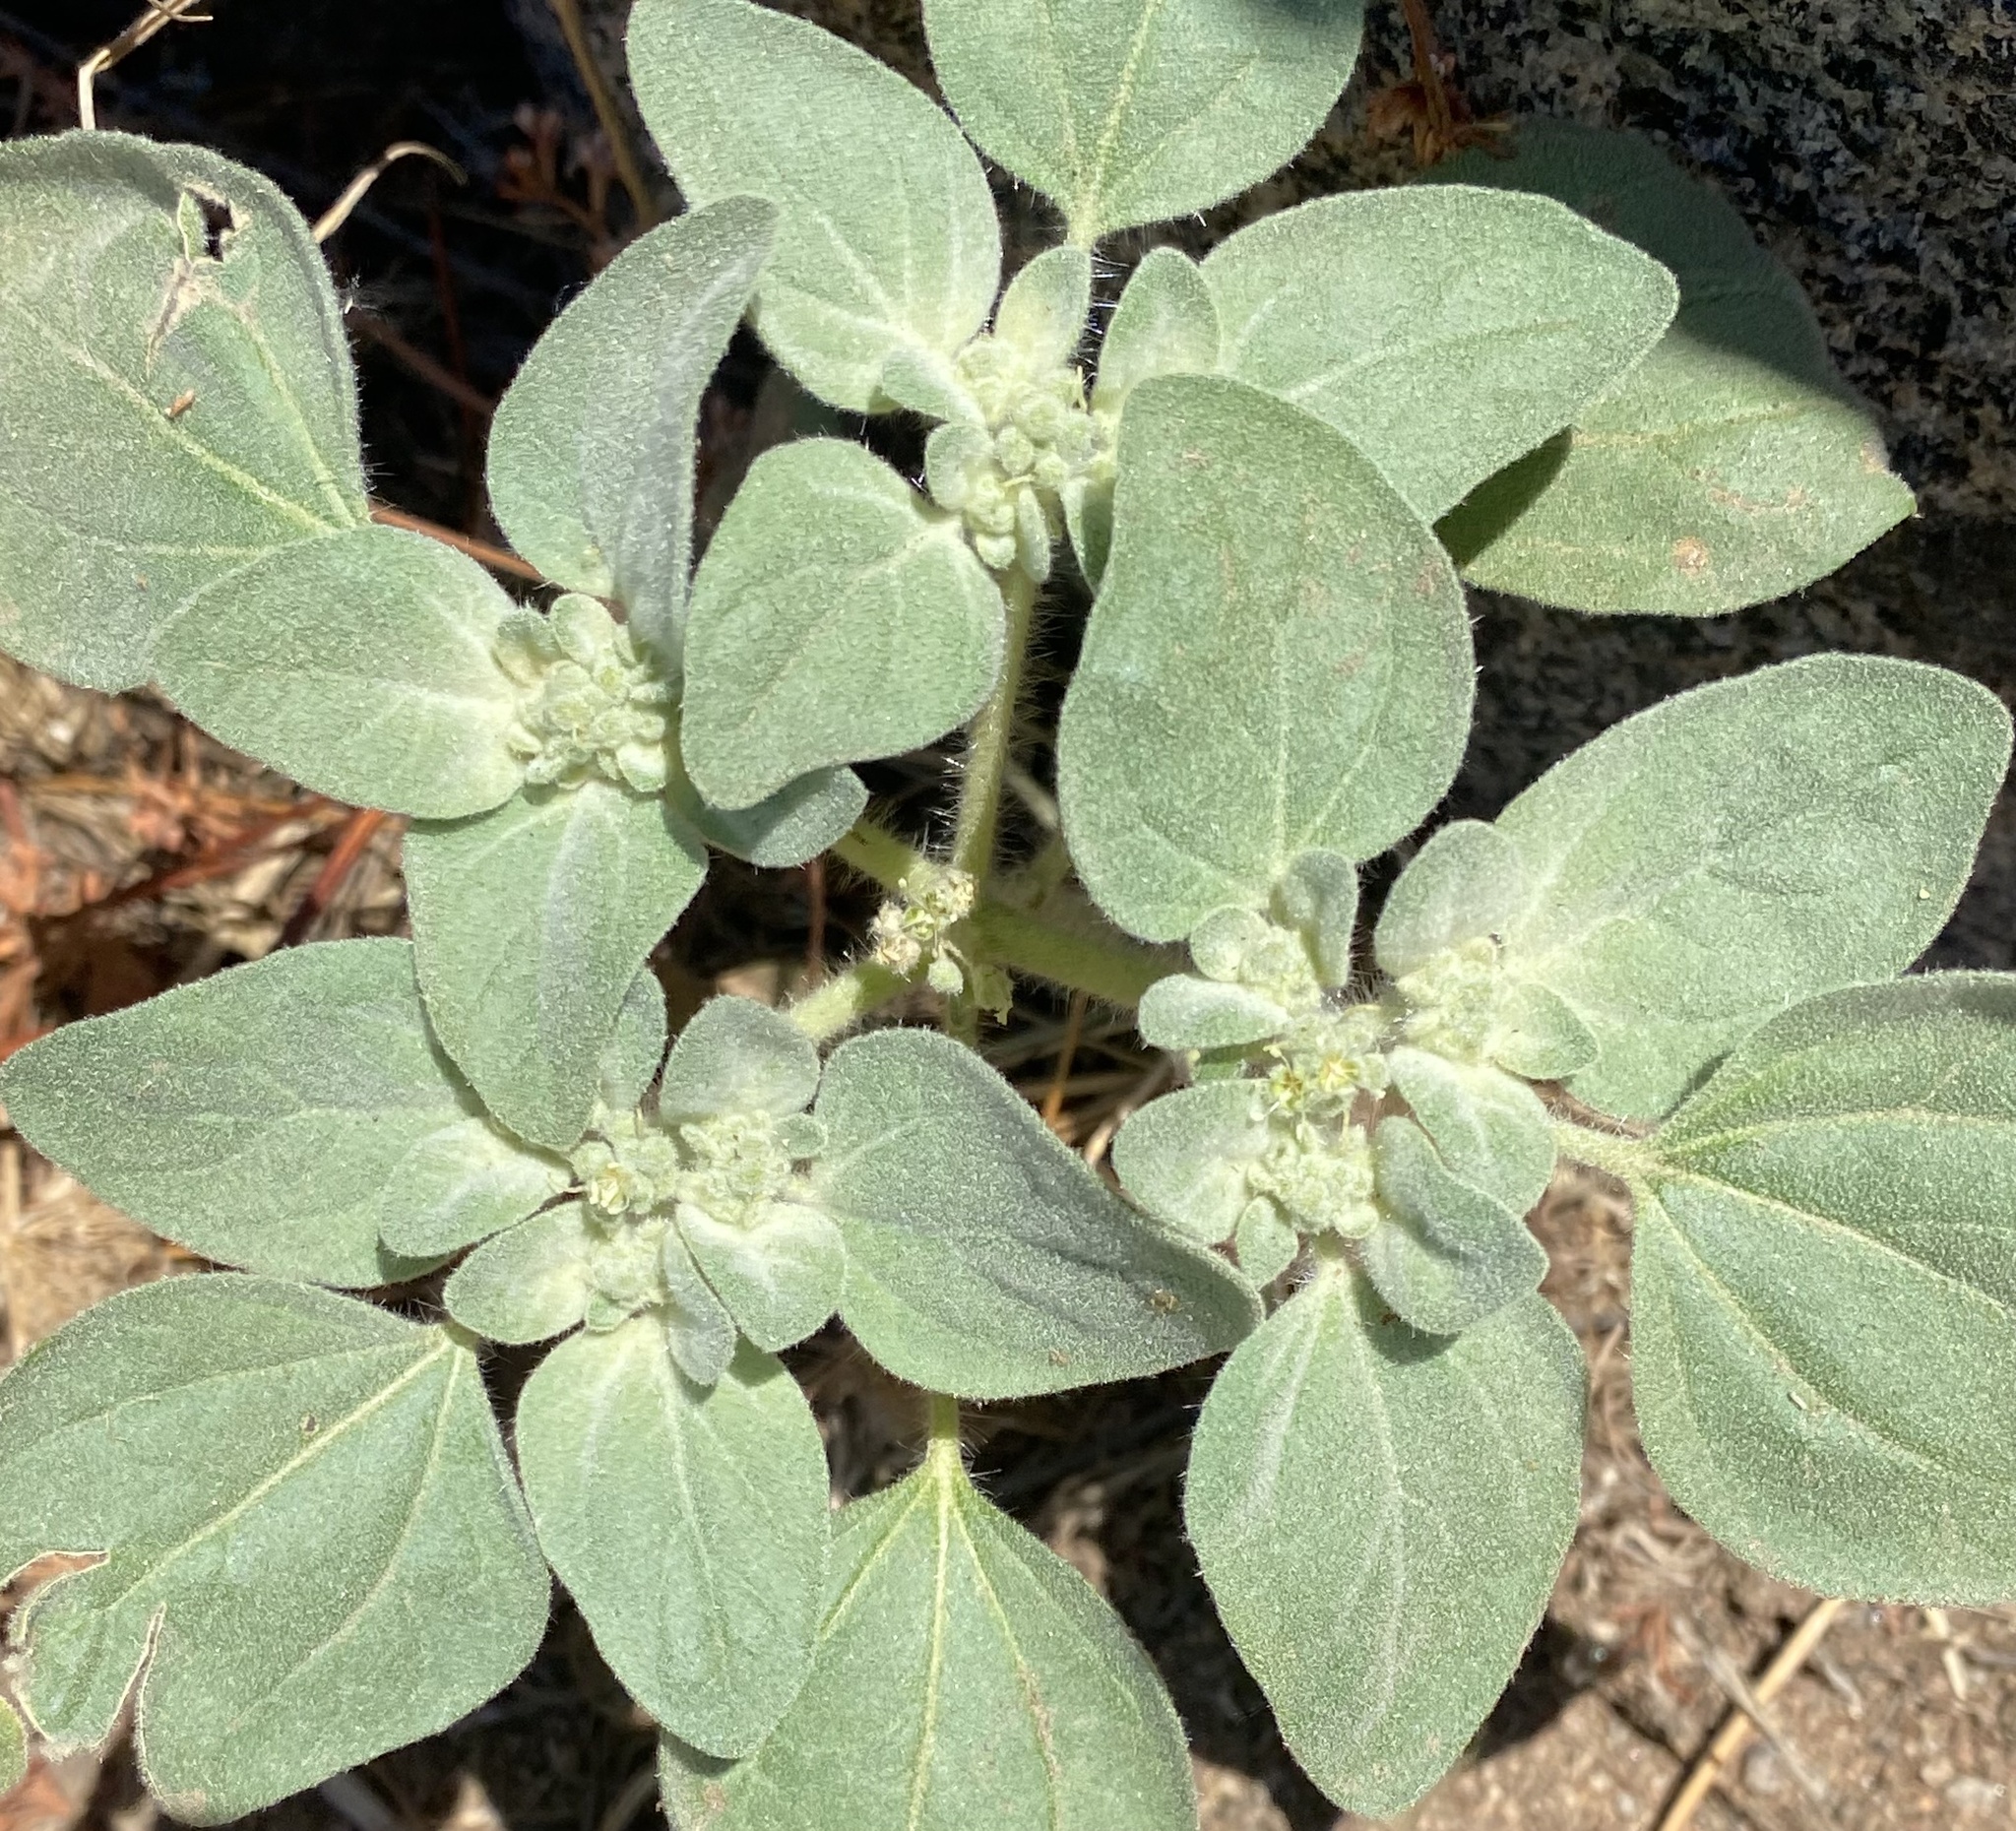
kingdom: Plantae
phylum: Tracheophyta
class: Magnoliopsida
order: Malpighiales
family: Euphorbiaceae
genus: Croton
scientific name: Croton setiger
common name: Dove weed
